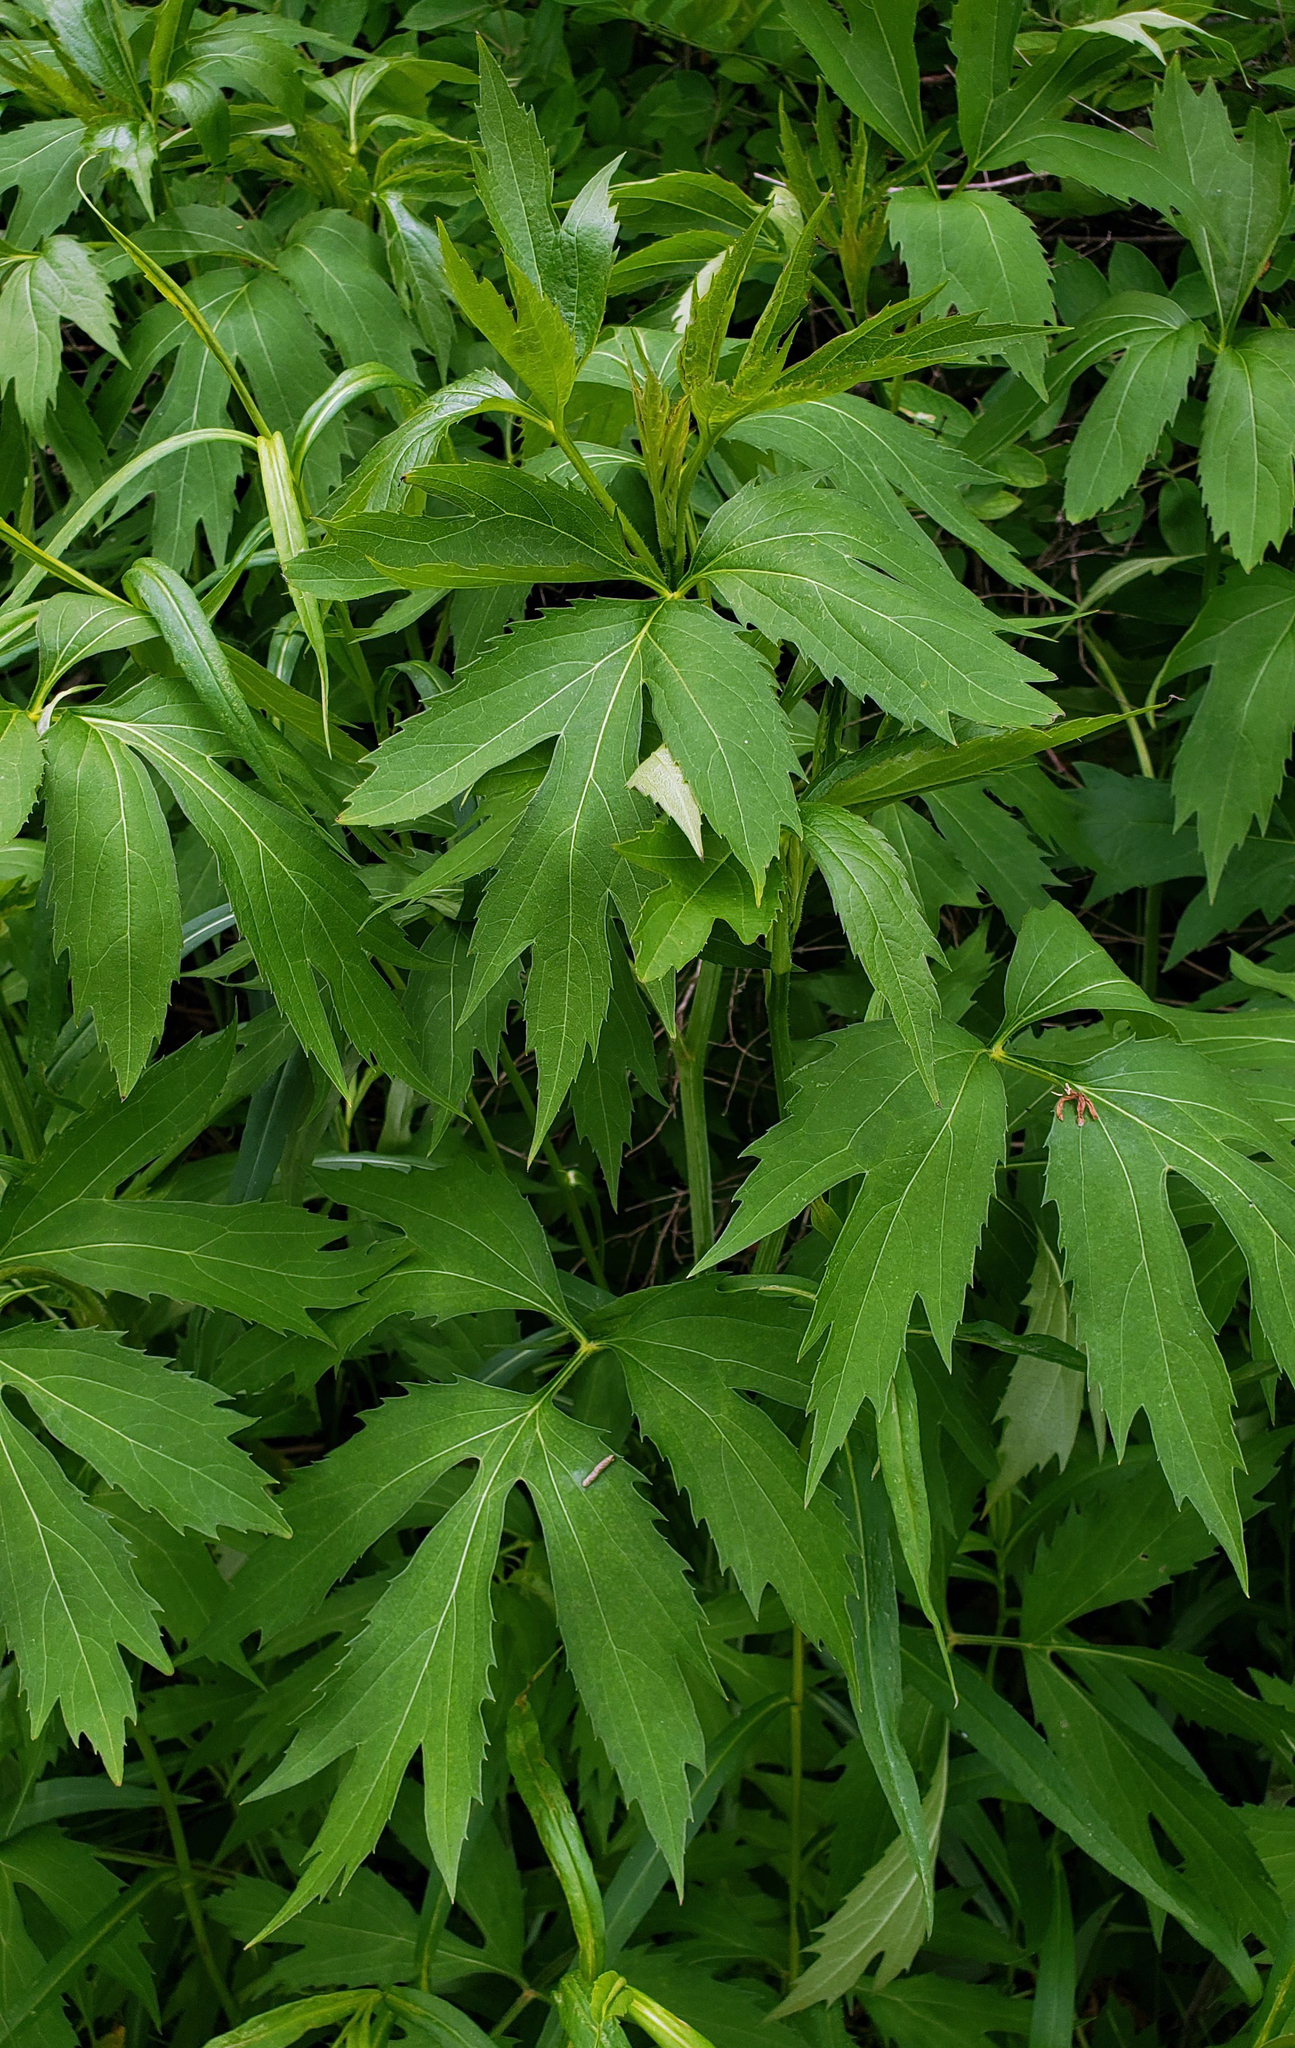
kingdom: Plantae
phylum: Tracheophyta
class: Magnoliopsida
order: Asterales
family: Asteraceae
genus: Rudbeckia
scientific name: Rudbeckia laciniata
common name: Coneflower
